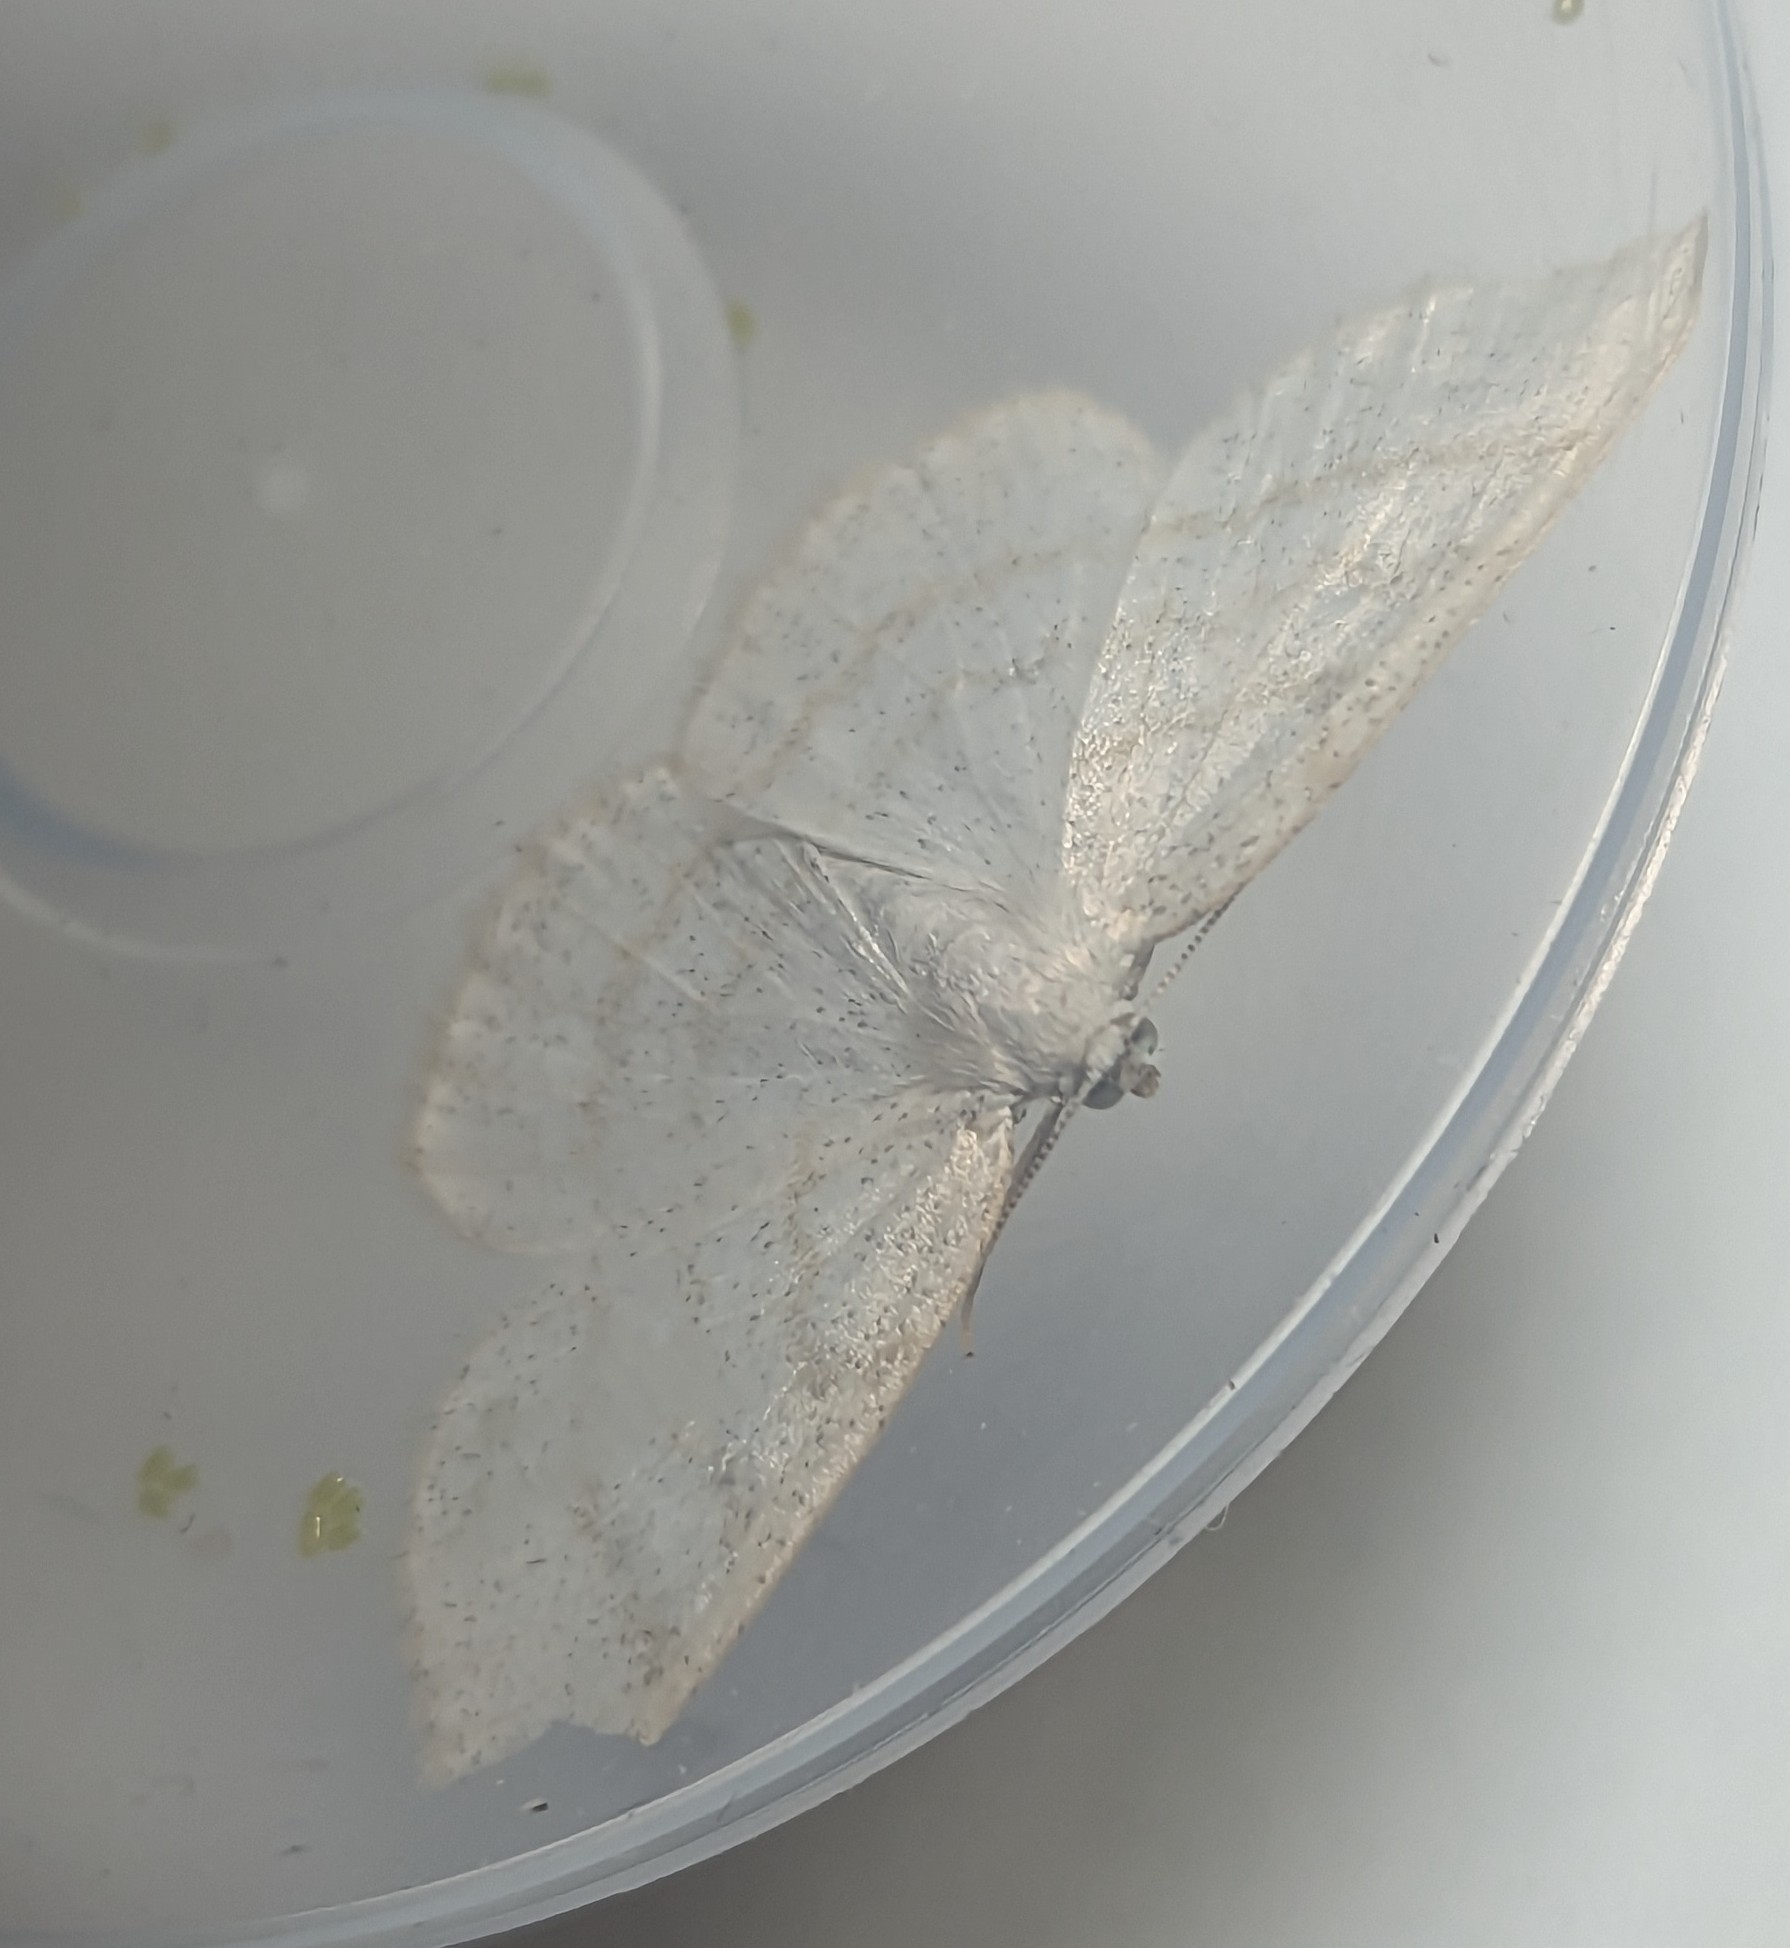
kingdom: Animalia
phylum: Arthropoda
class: Insecta
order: Lepidoptera
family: Geometridae
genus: Cabera
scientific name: Cabera exanthemata
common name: Common wave
